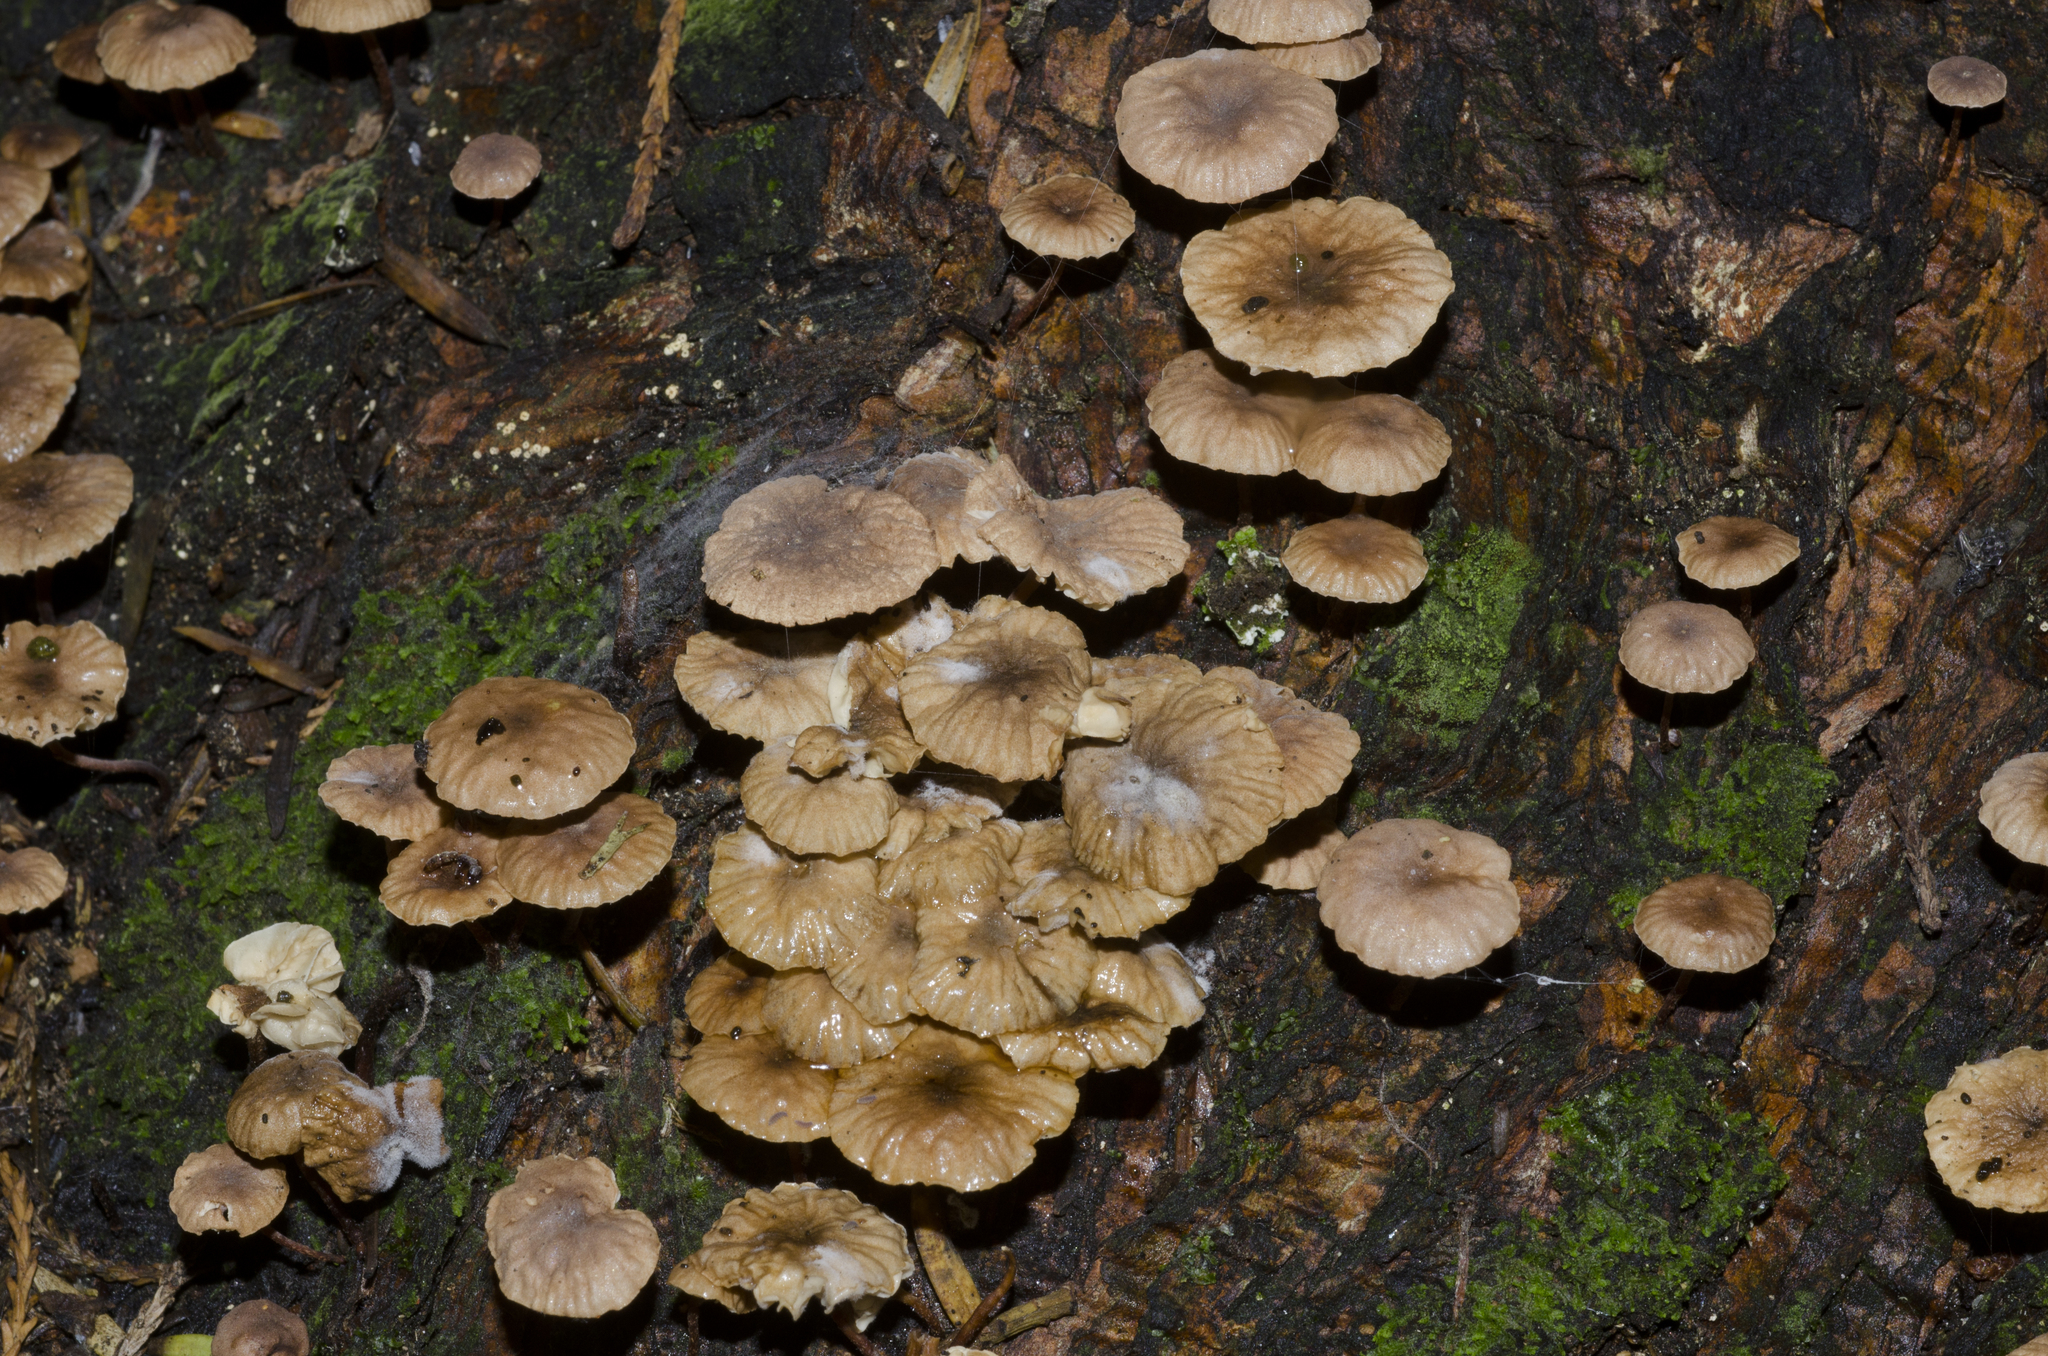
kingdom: Fungi
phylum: Basidiomycota
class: Agaricomycetes
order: Agaricales
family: Omphalotaceae
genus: Mycetinis
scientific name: Mycetinis curraniae
